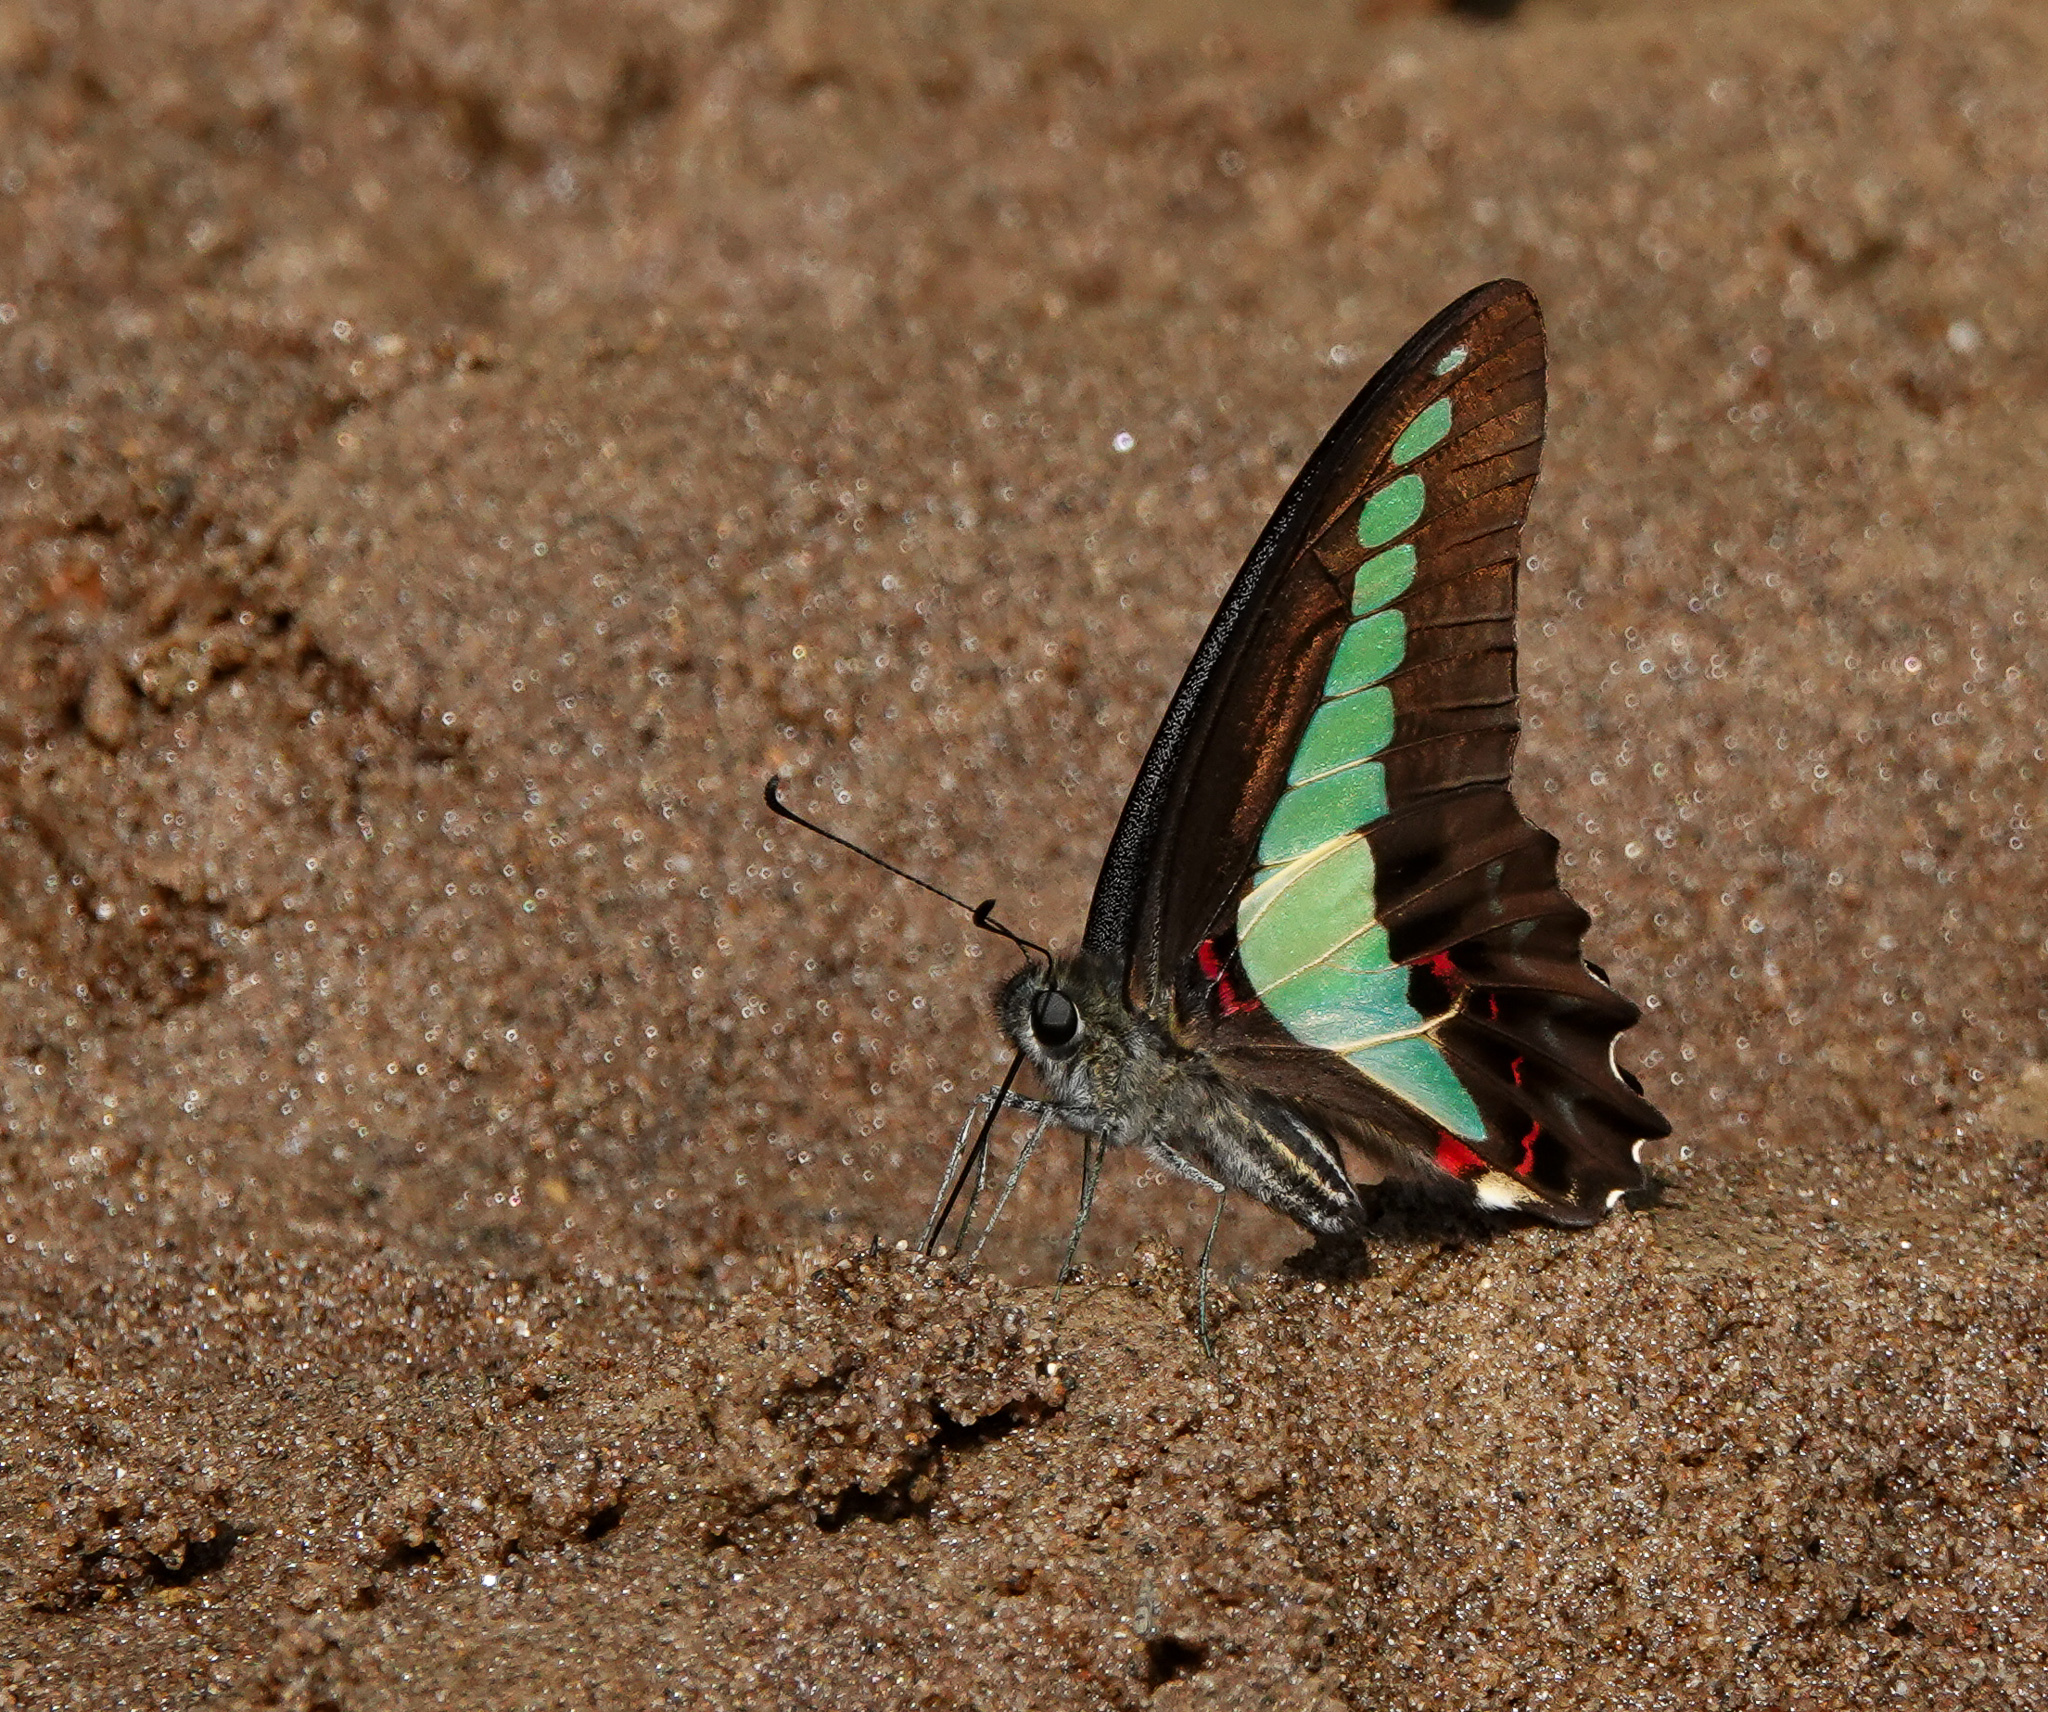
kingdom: Fungi
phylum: Ascomycota
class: Sordariomycetes
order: Microascales
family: Microascaceae
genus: Graphium
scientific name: Graphium sarpedon
